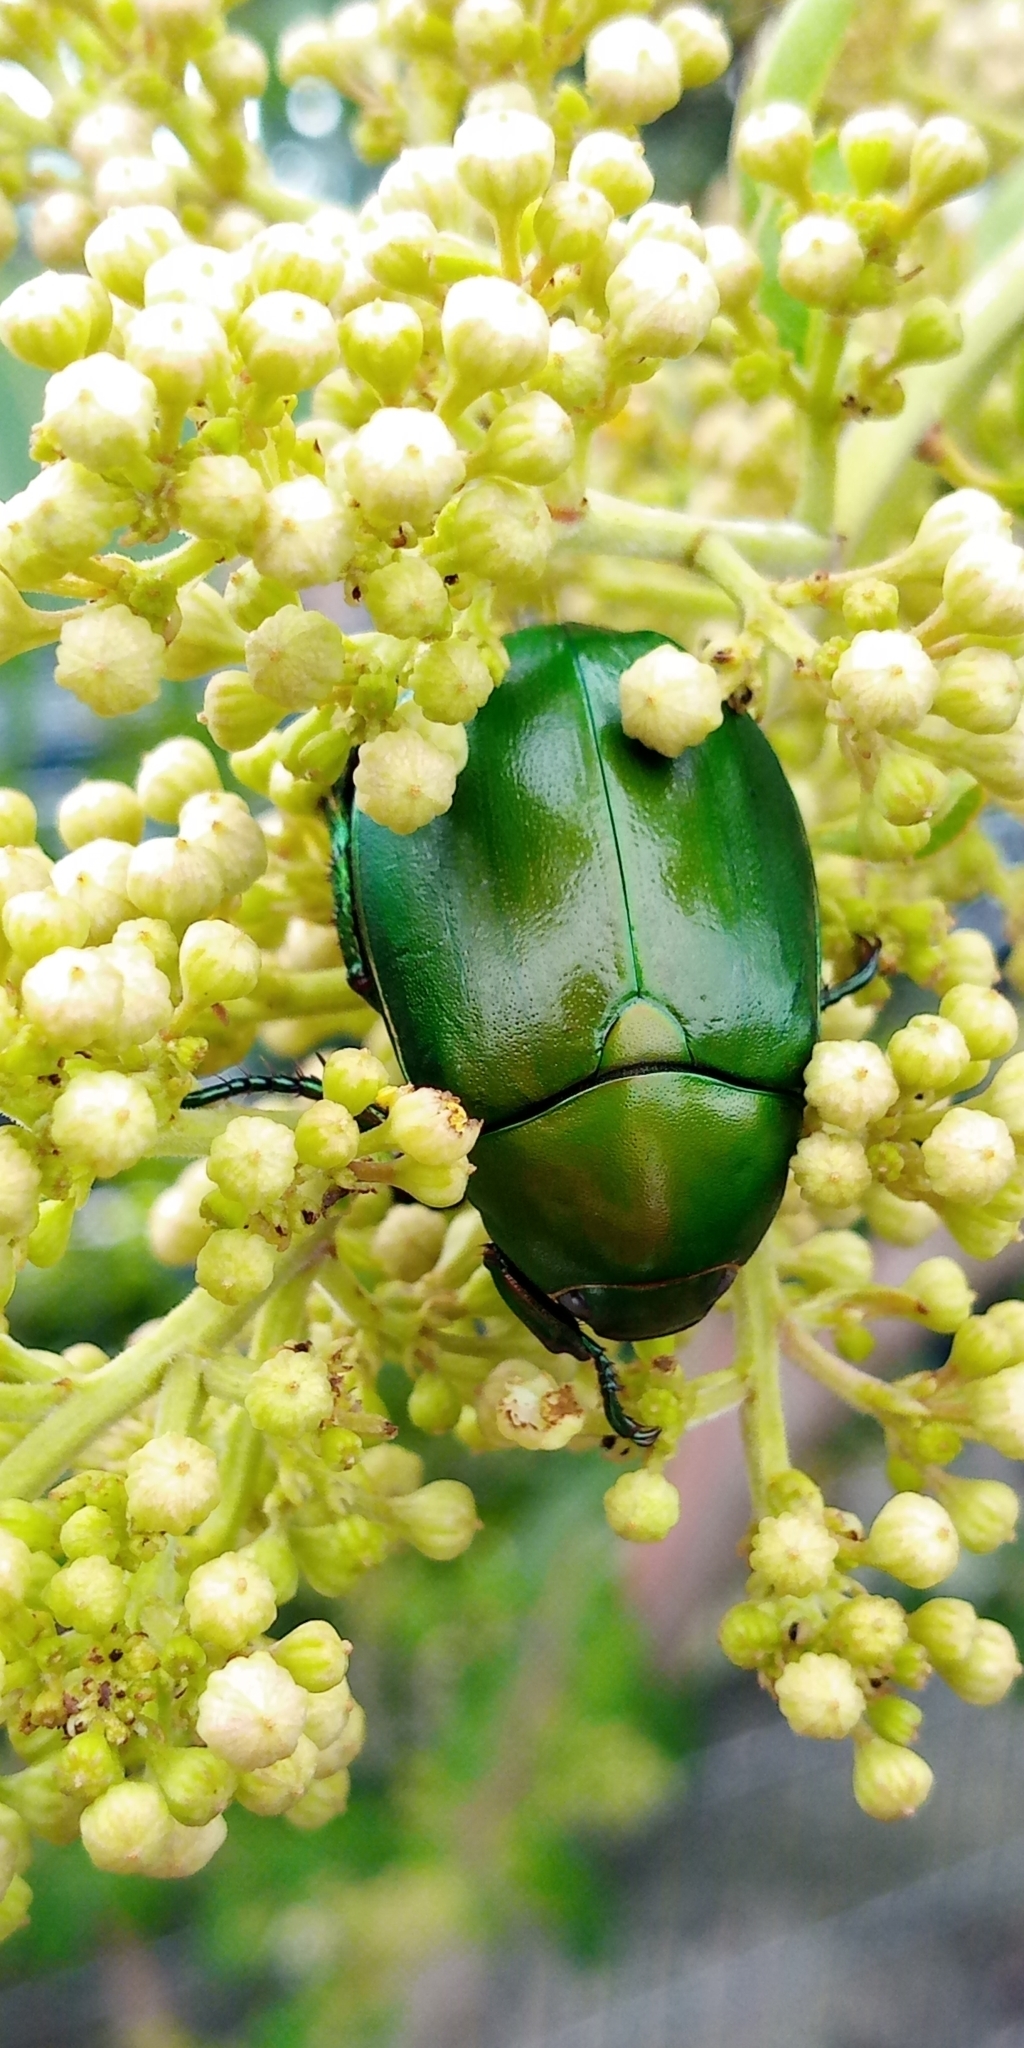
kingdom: Animalia
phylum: Arthropoda
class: Insecta
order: Coleoptera
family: Scarabaeidae
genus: Anomala
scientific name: Anomala expansa
